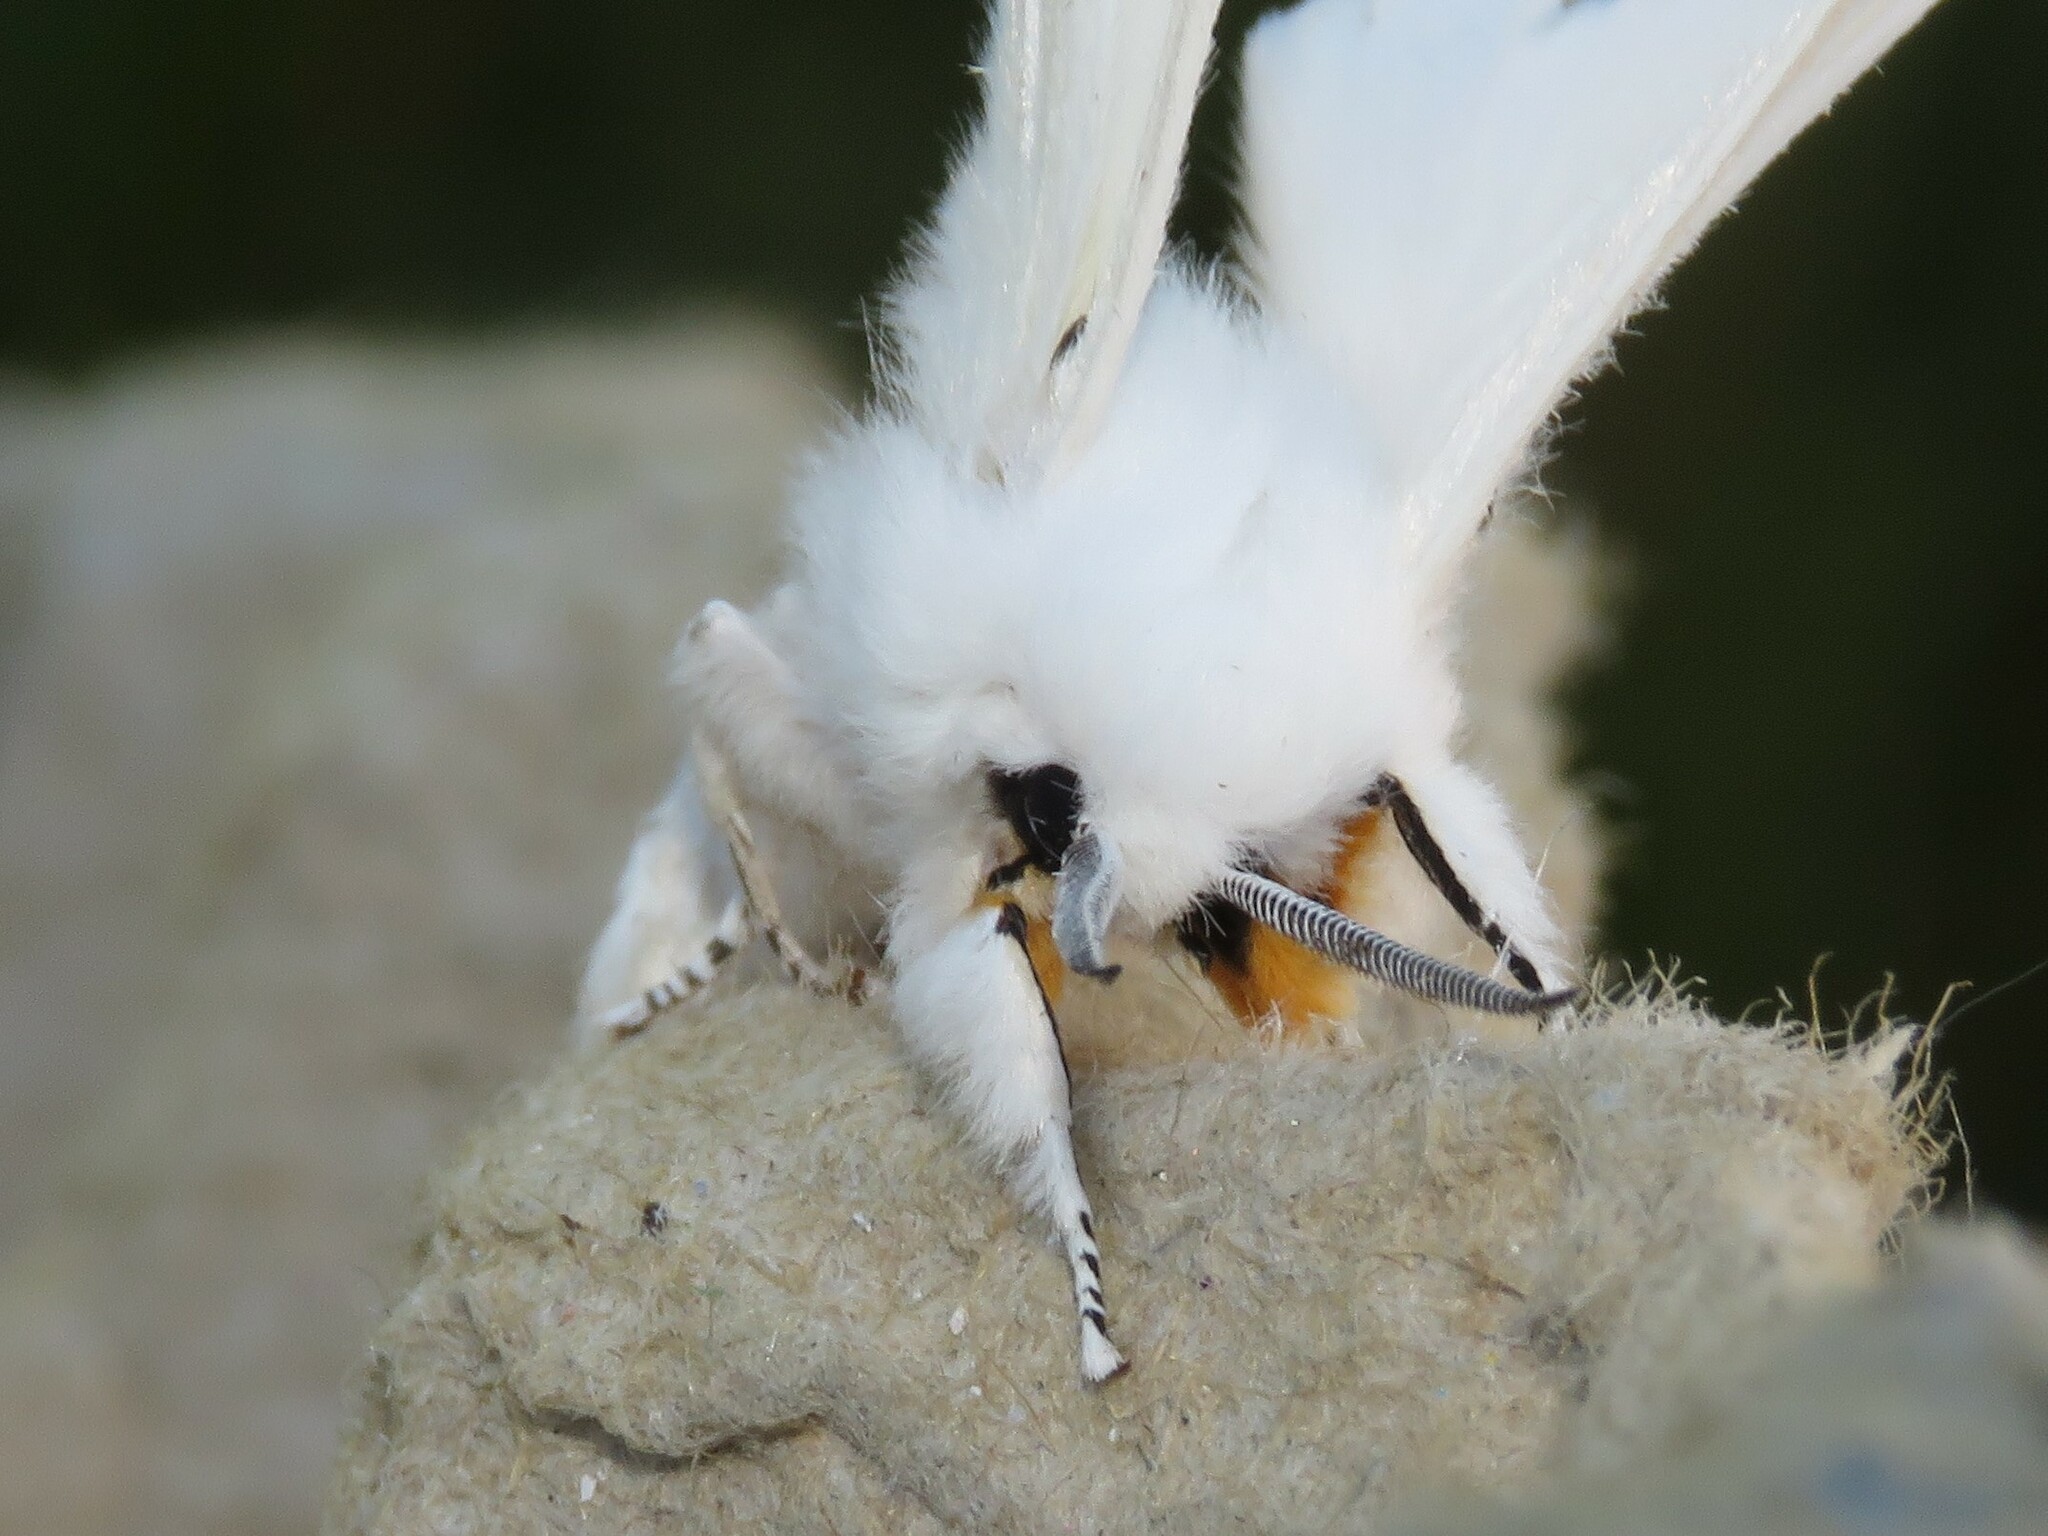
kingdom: Animalia
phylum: Arthropoda
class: Insecta
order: Lepidoptera
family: Erebidae
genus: Spilosoma
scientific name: Spilosoma virginica
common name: Virginia tiger moth
